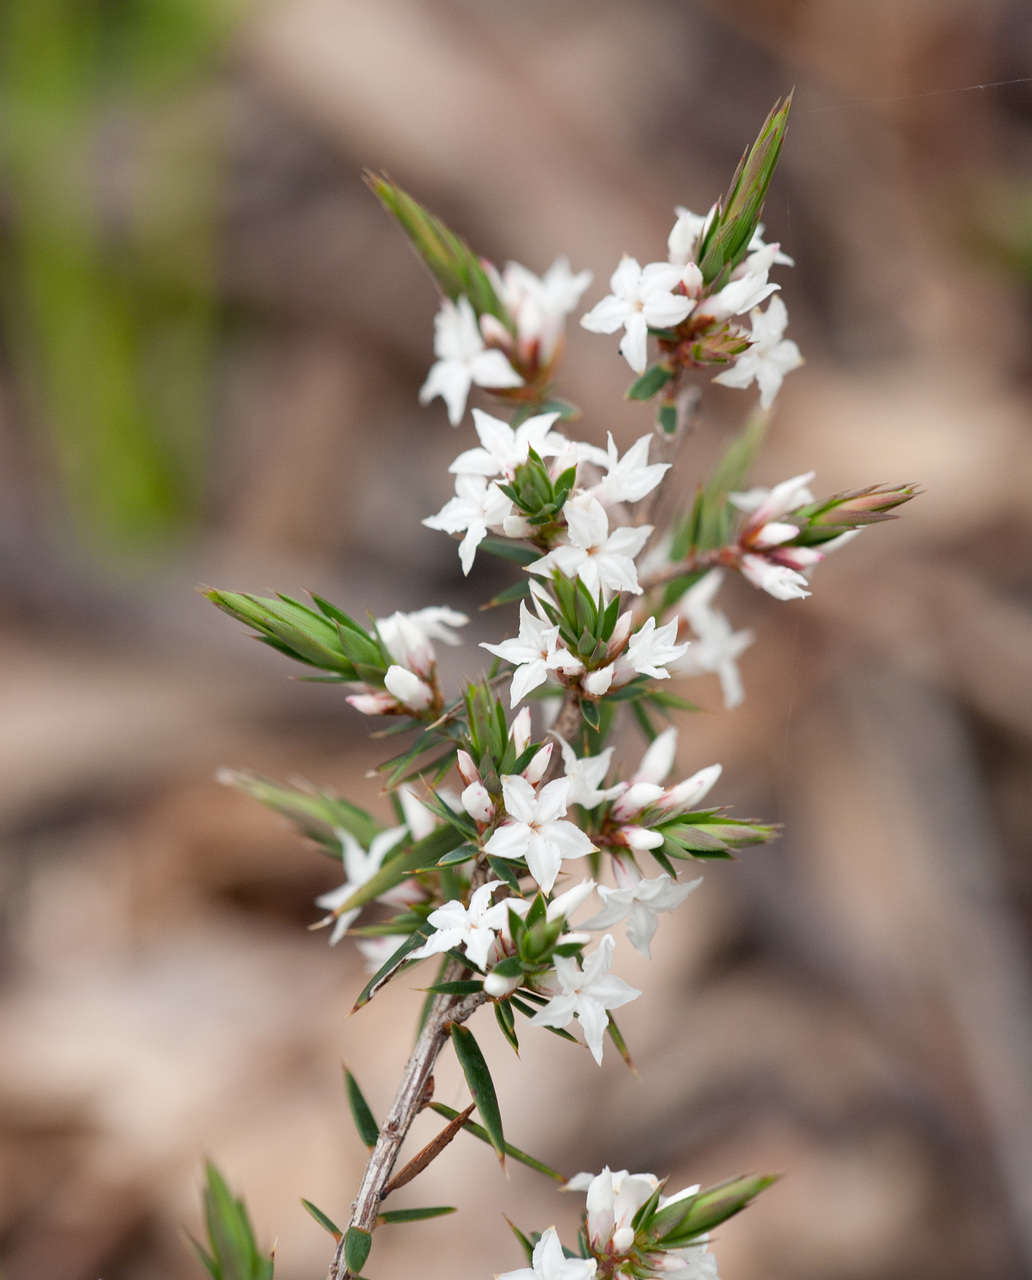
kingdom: Plantae
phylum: Tracheophyta
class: Magnoliopsida
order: Ericales
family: Ericaceae
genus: Brachyloma
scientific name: Brachyloma depressum
